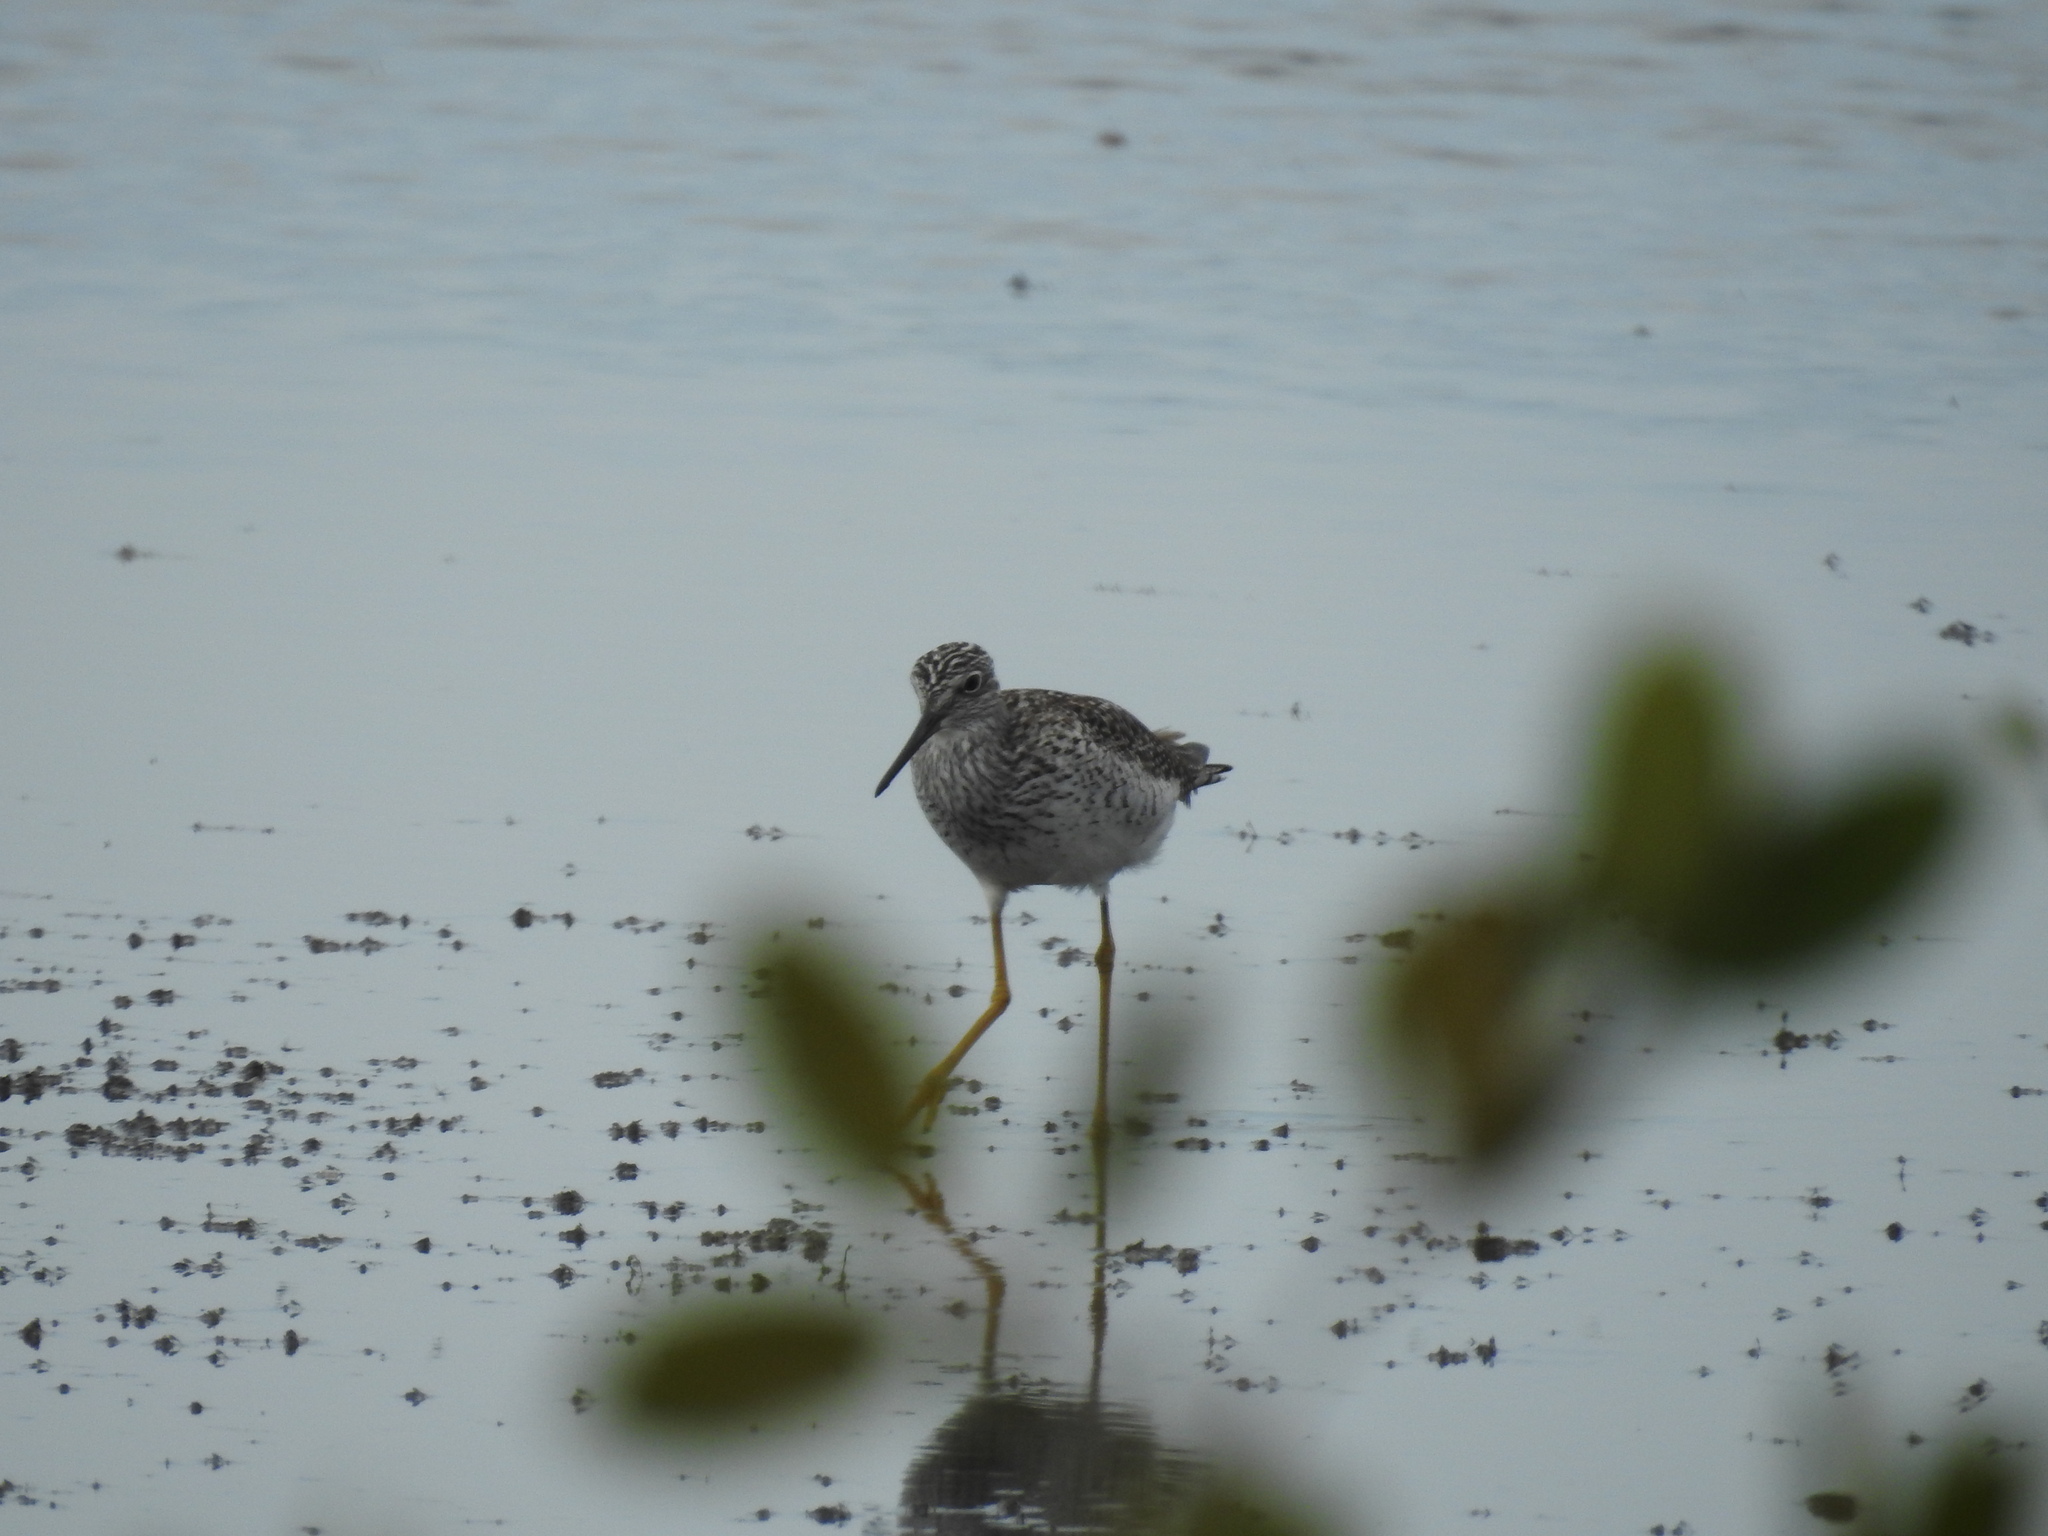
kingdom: Animalia
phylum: Chordata
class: Aves
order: Charadriiformes
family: Scolopacidae
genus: Tringa
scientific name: Tringa melanoleuca
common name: Greater yellowlegs
